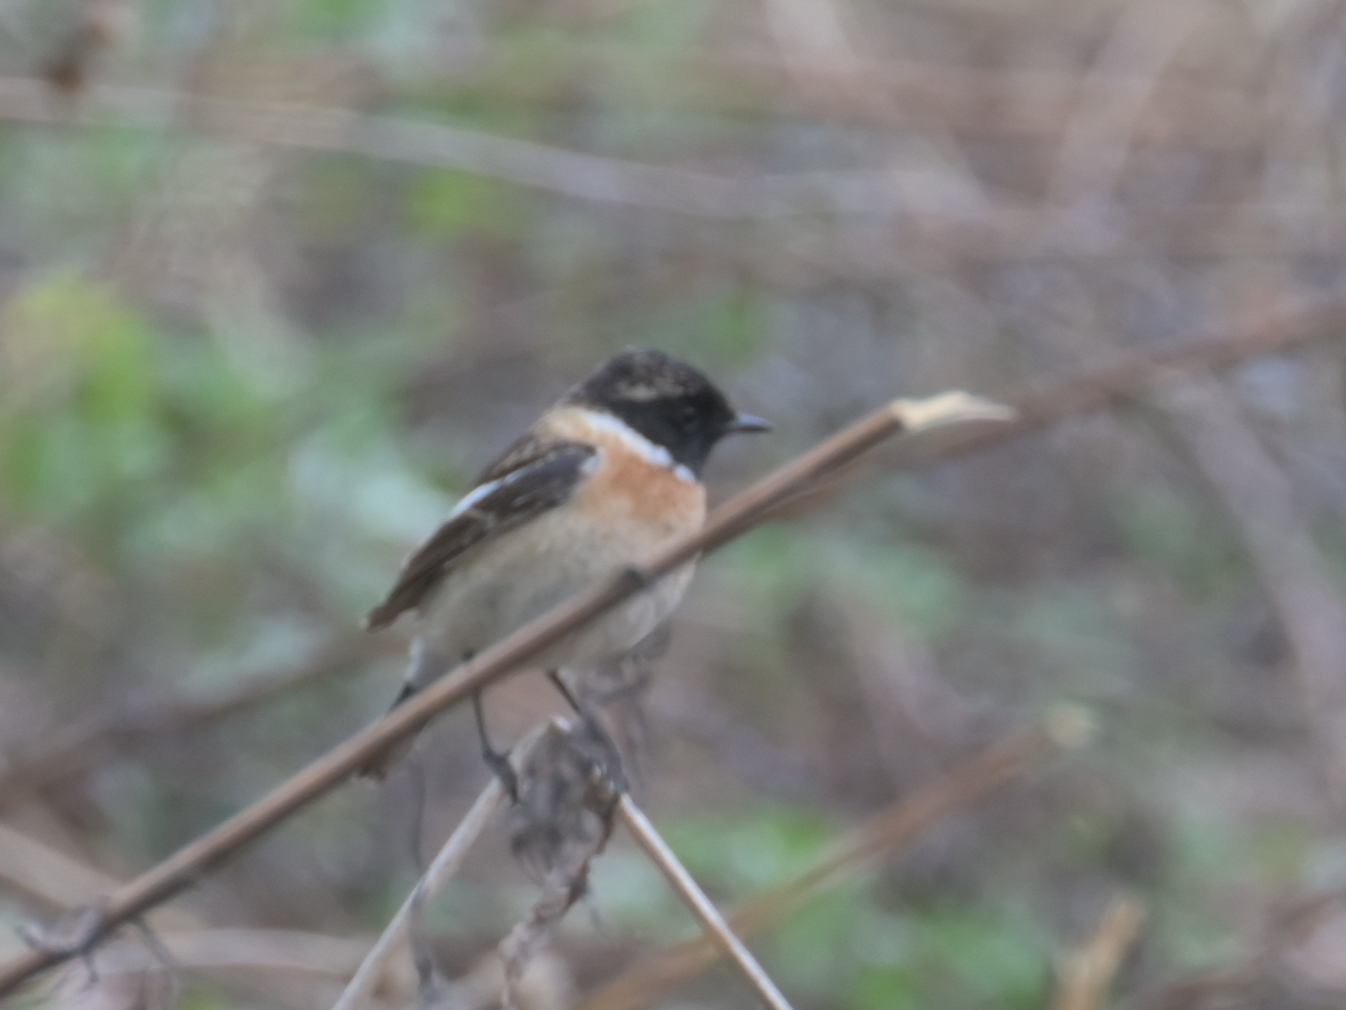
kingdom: Animalia
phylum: Chordata
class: Aves
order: Passeriformes
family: Muscicapidae
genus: Saxicola
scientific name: Saxicola maurus
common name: Siberian stonechat
